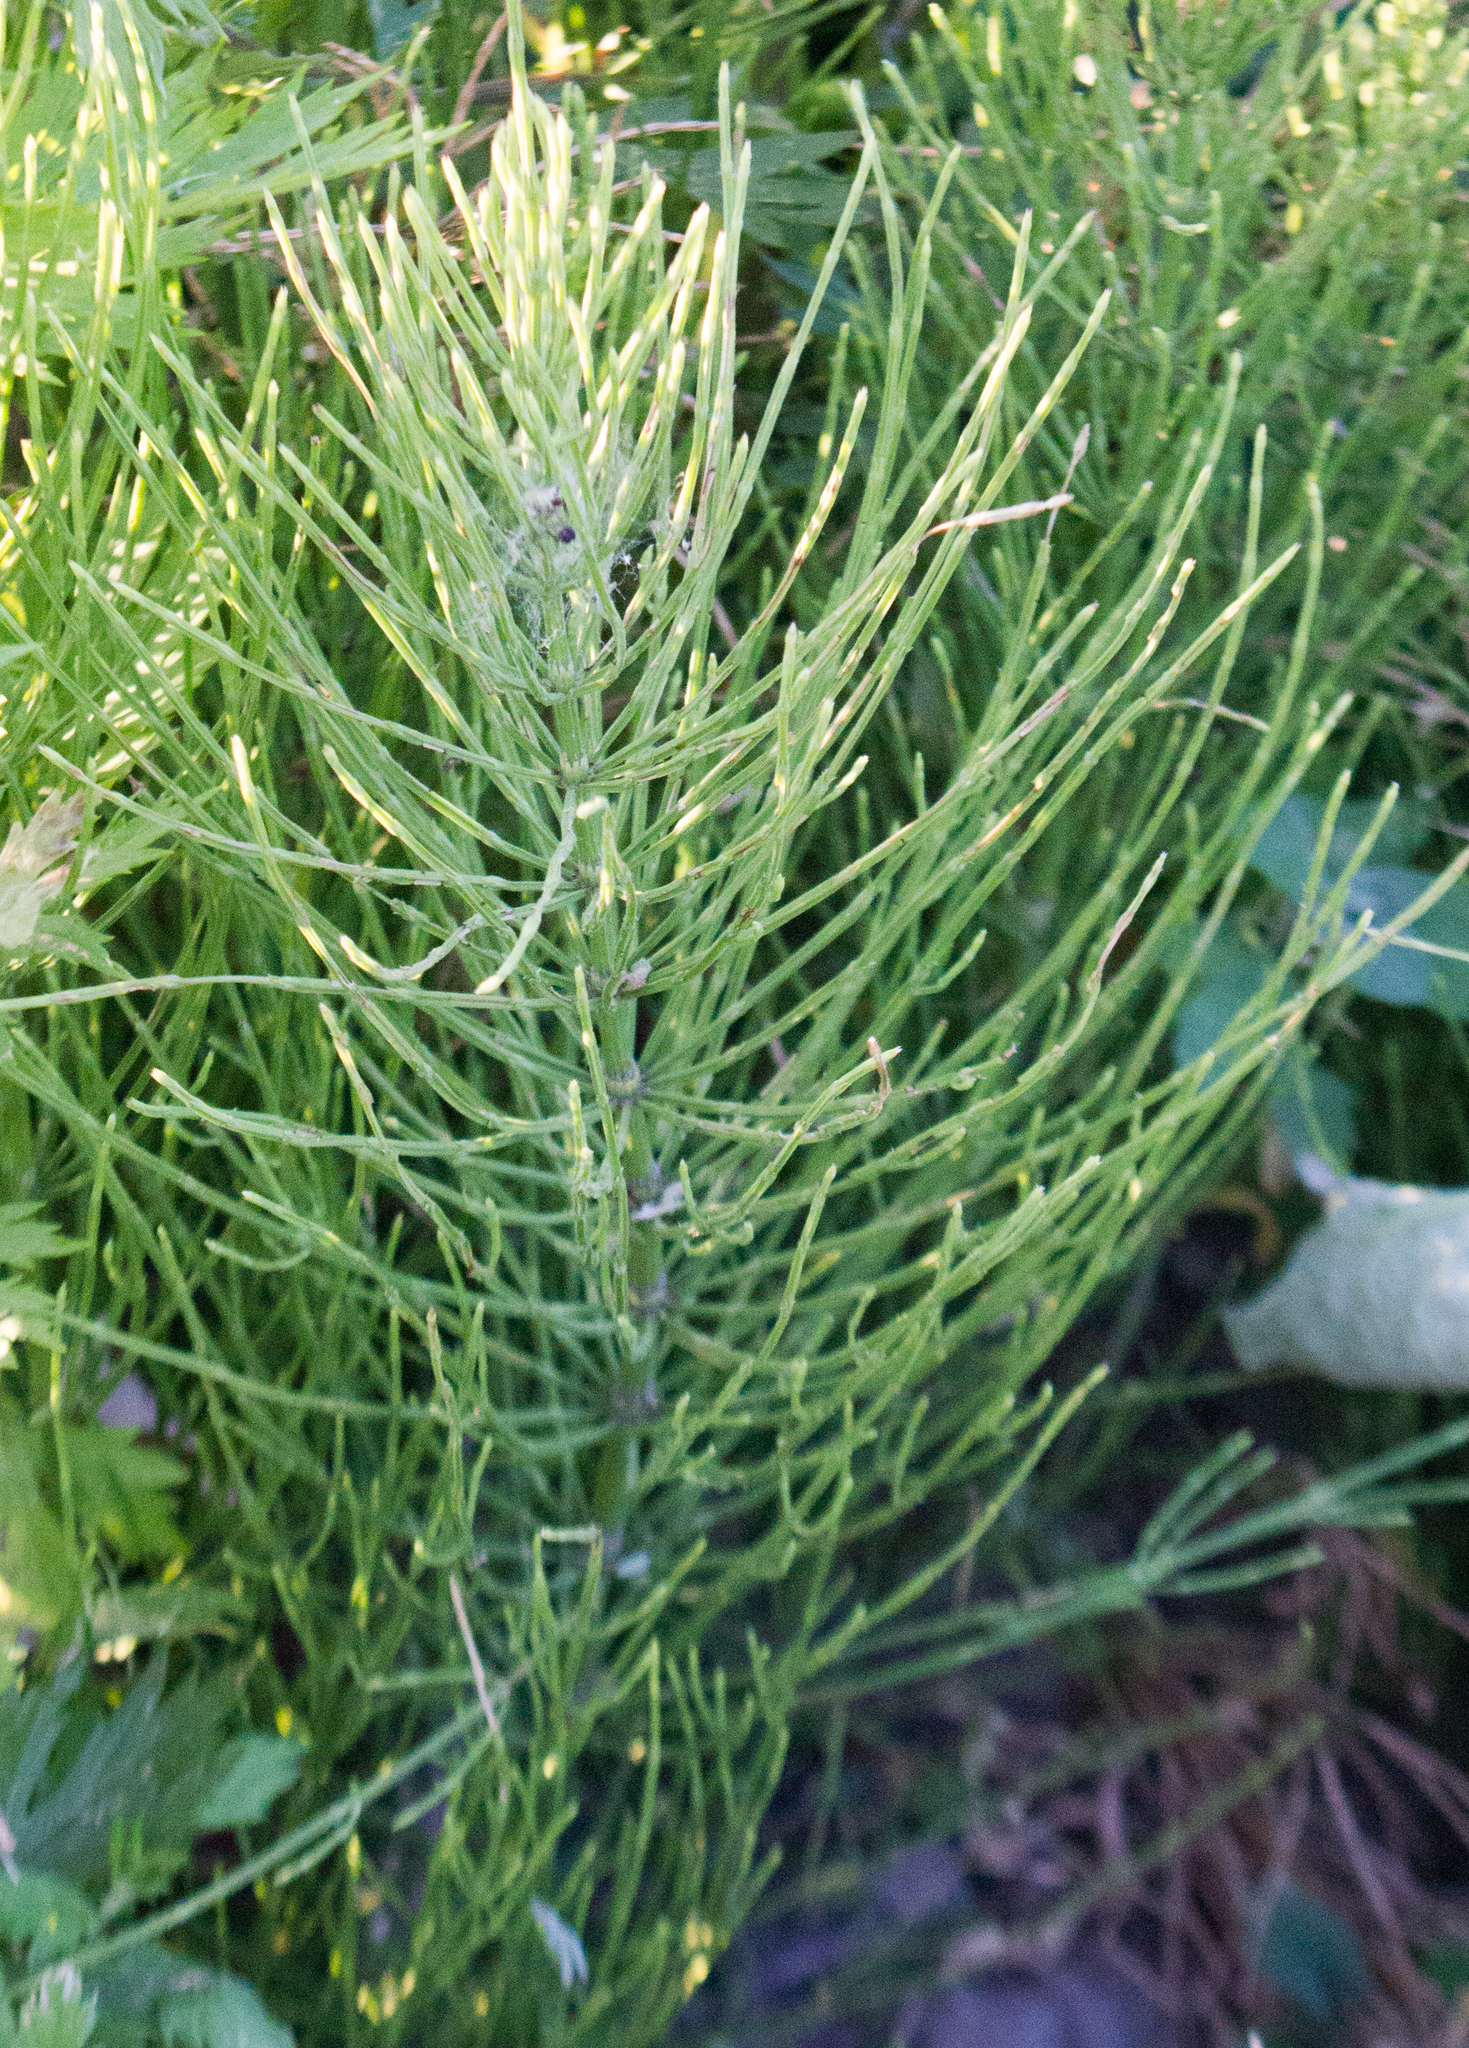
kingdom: Plantae
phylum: Tracheophyta
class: Polypodiopsida
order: Equisetales
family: Equisetaceae
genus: Equisetum
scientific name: Equisetum arvense
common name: Field horsetail
